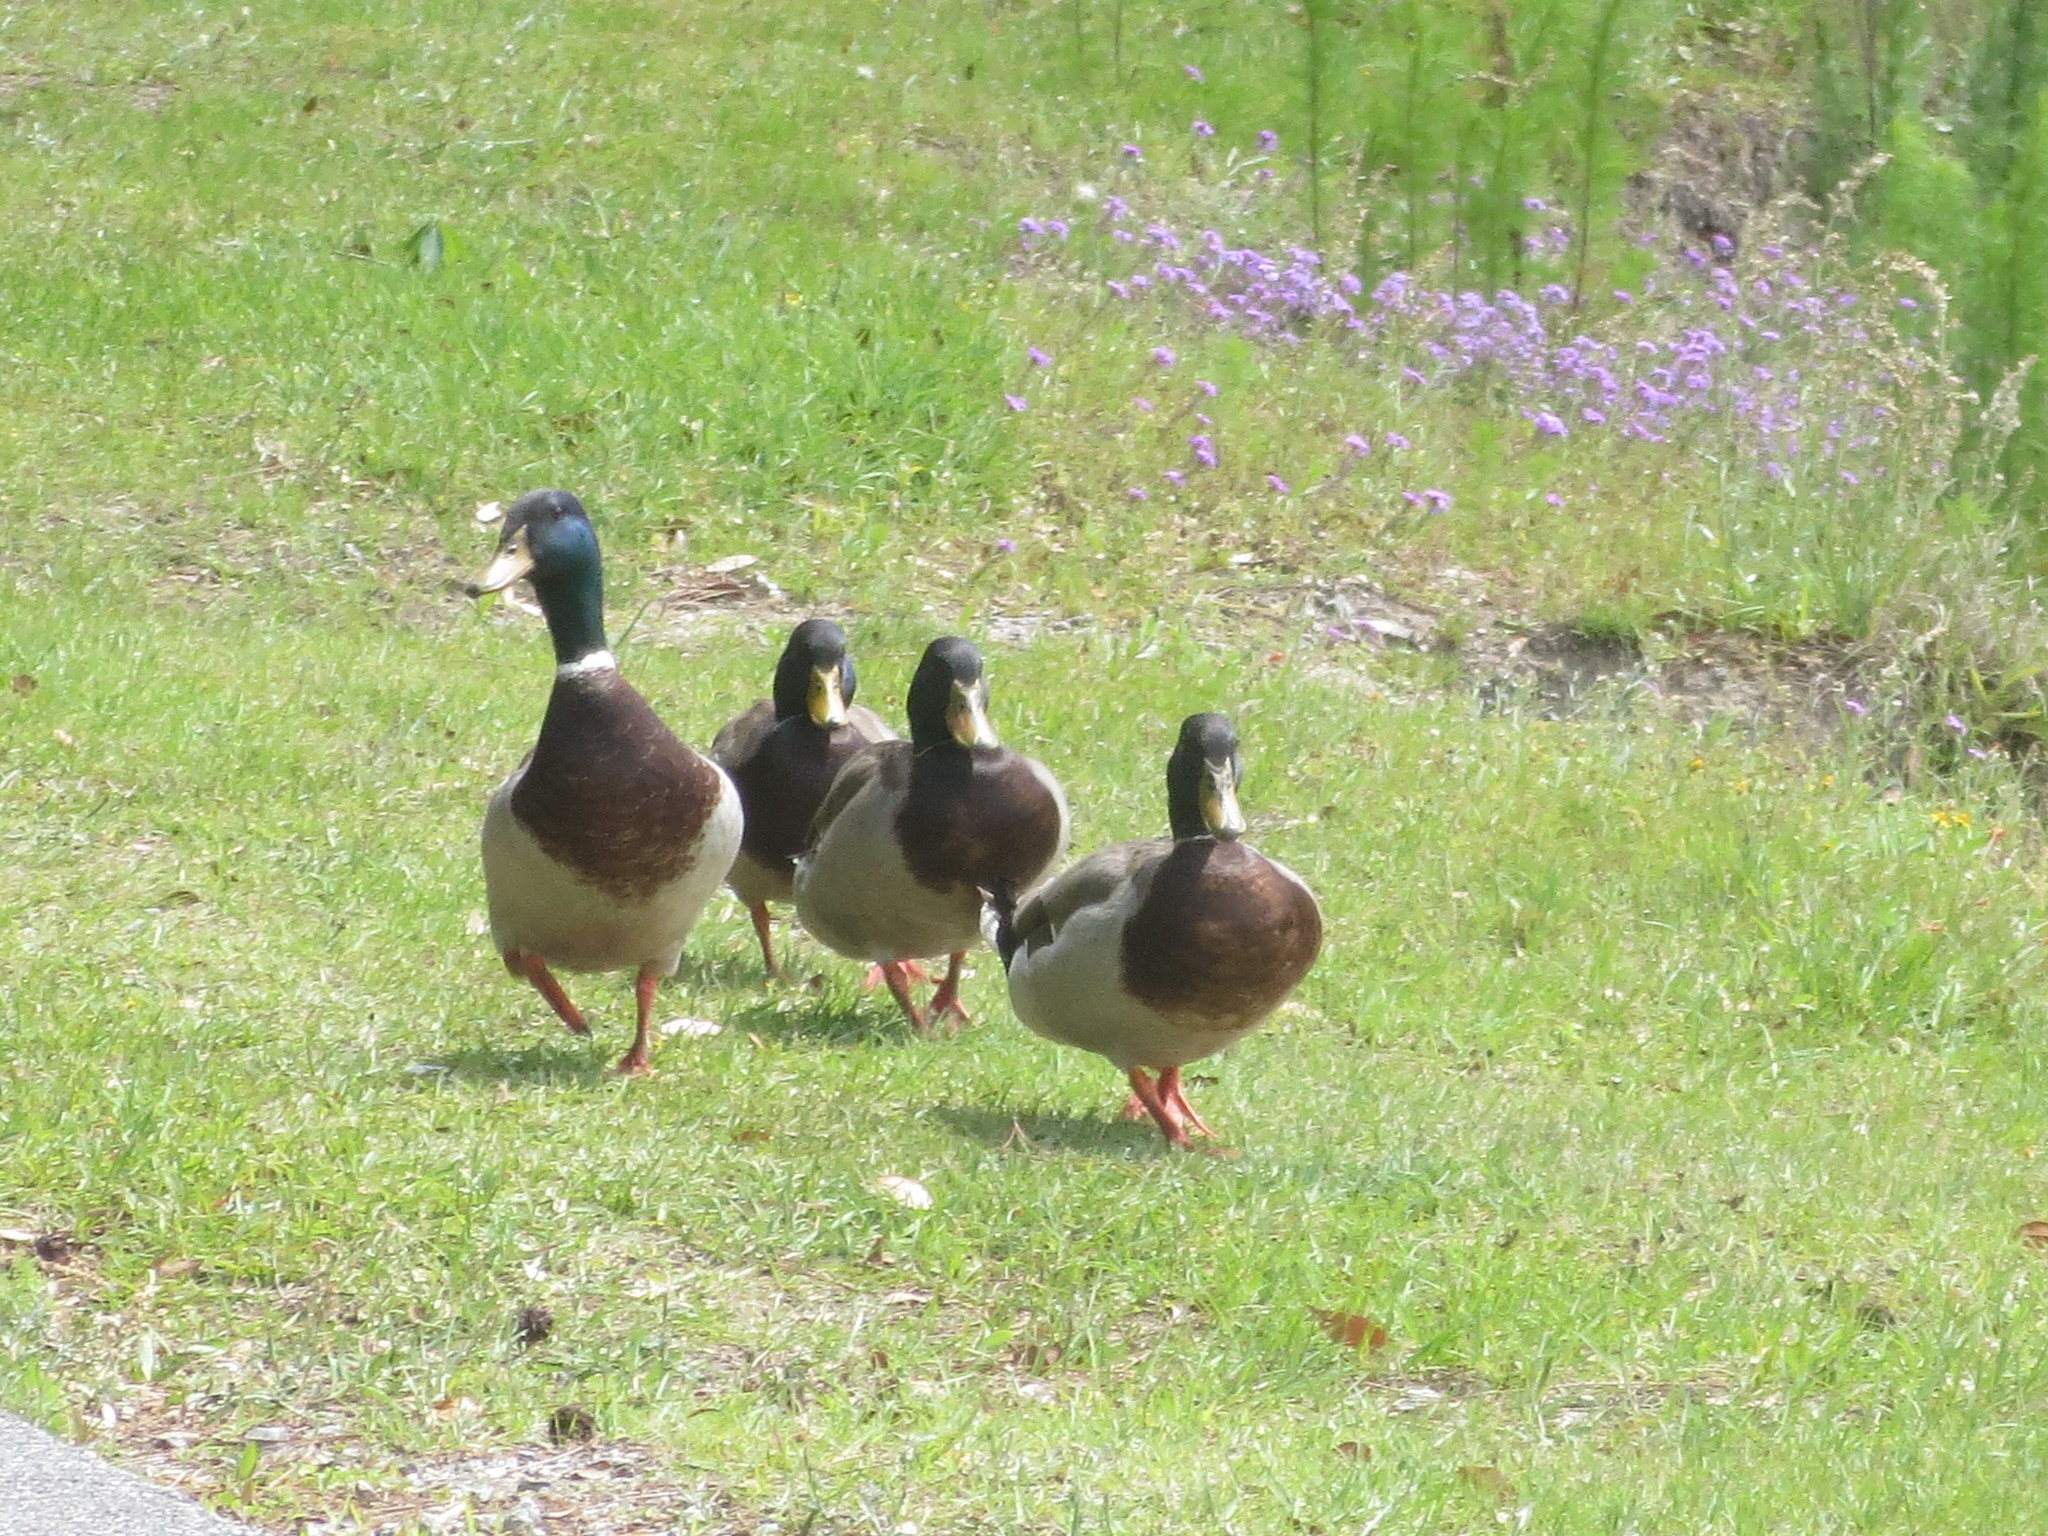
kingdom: Animalia
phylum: Chordata
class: Aves
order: Anseriformes
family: Anatidae
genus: Anas
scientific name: Anas platyrhynchos
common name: Mallard
